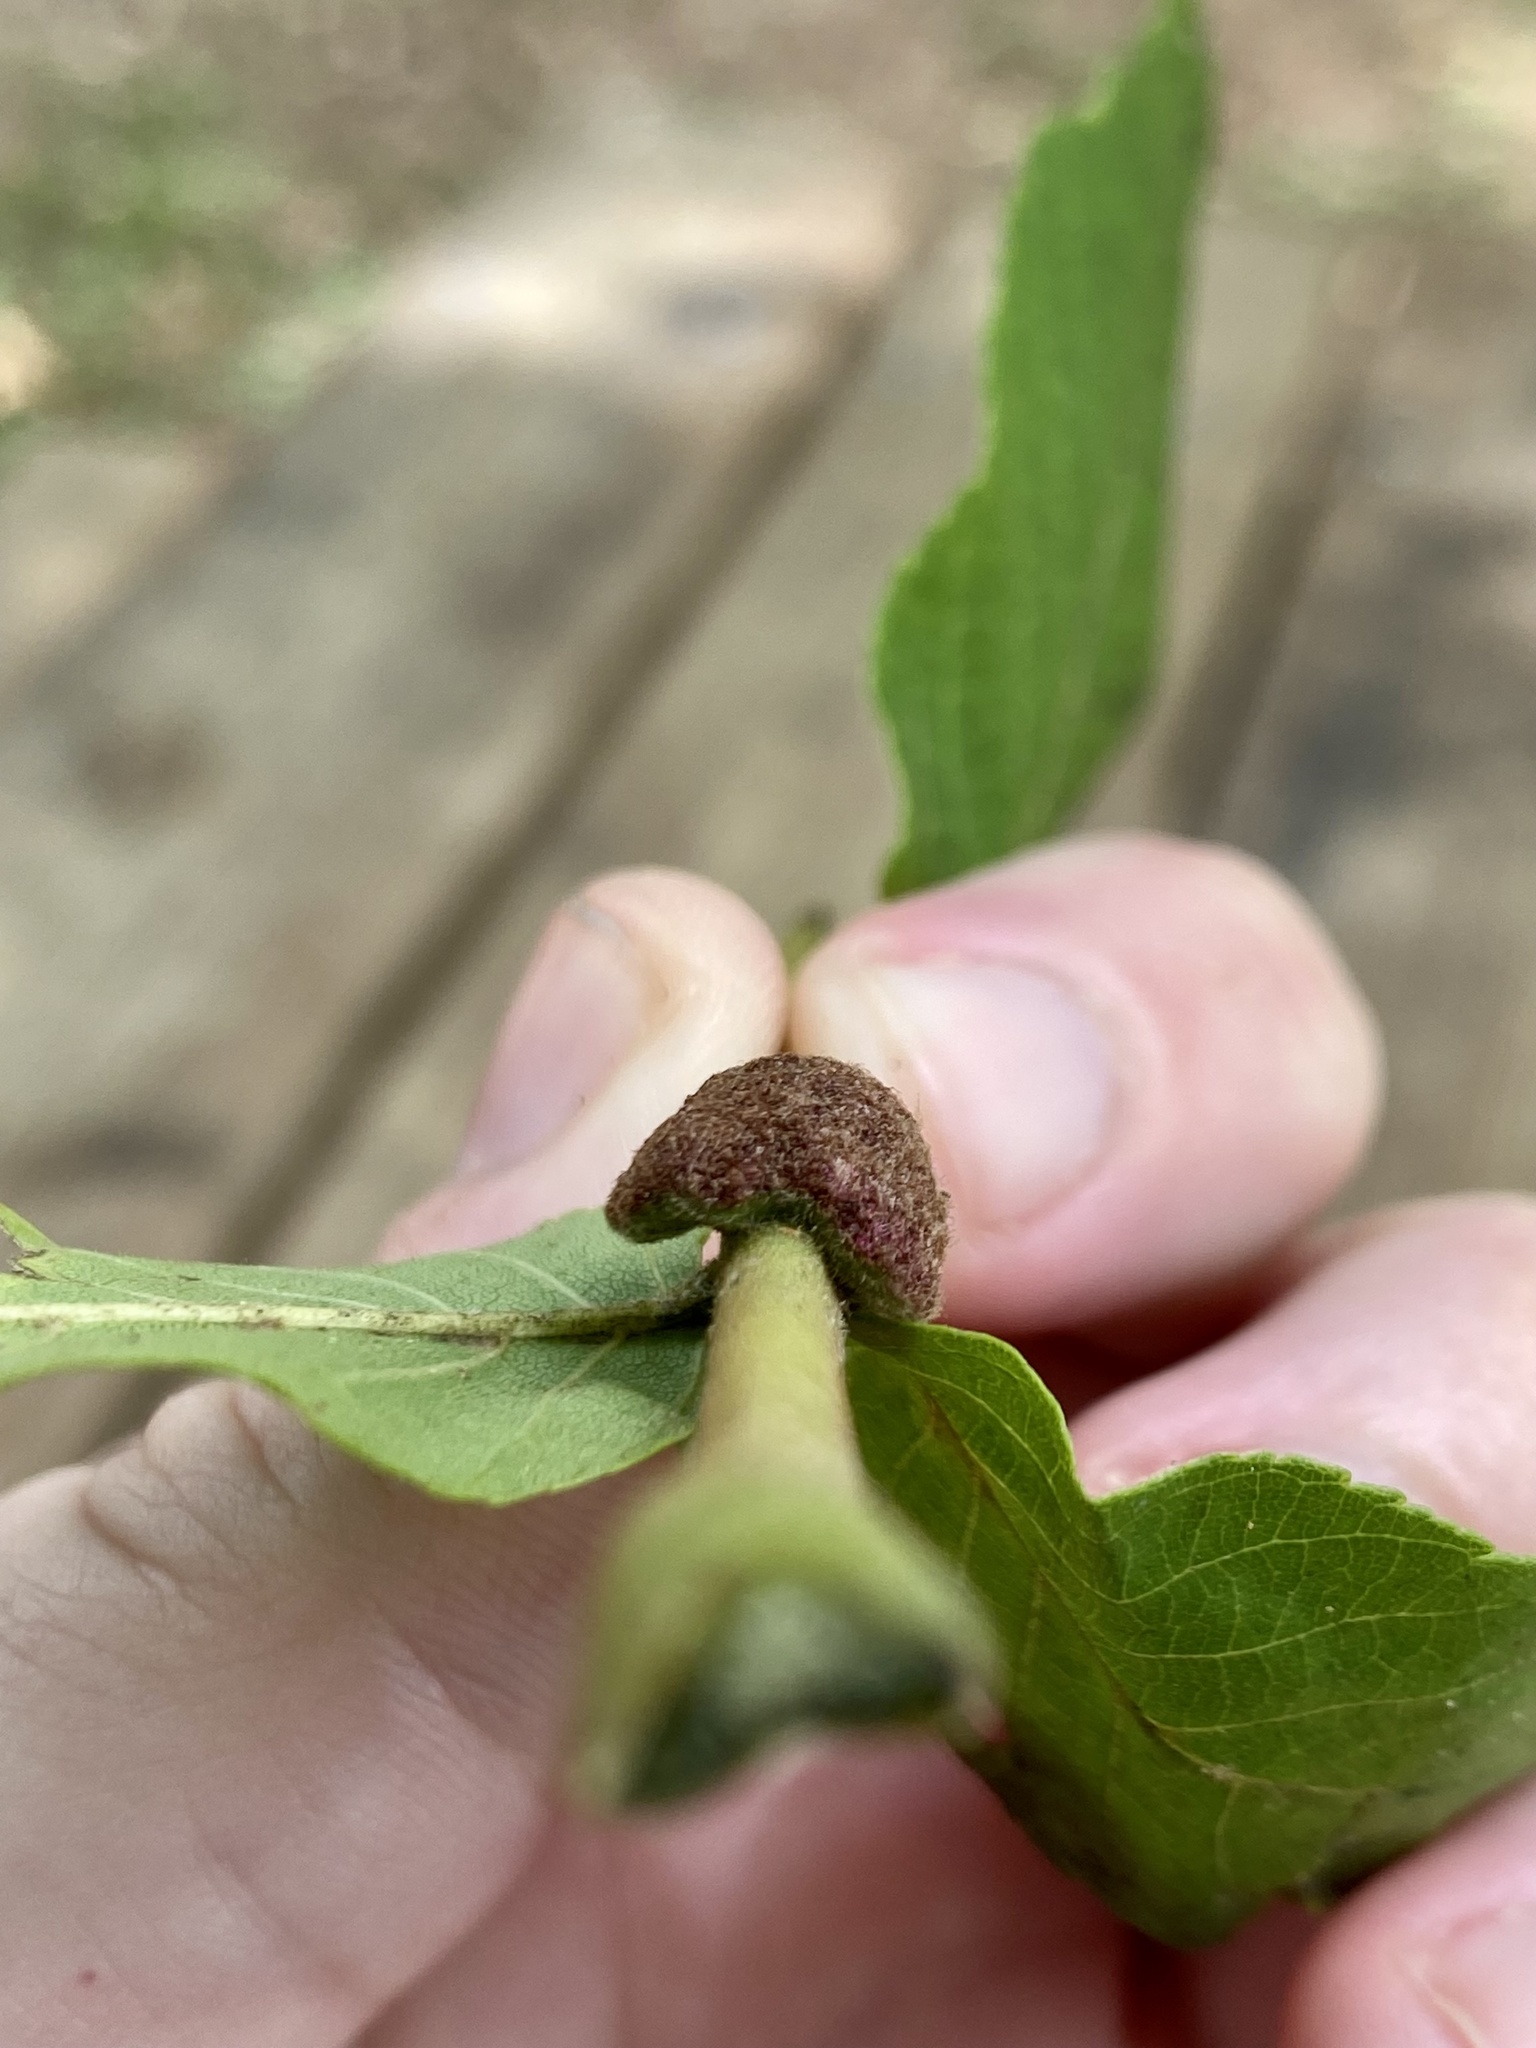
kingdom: Animalia
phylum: Arthropoda
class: Arachnida
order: Trombidiformes
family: Eriophyidae
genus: Aceria
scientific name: Aceria
